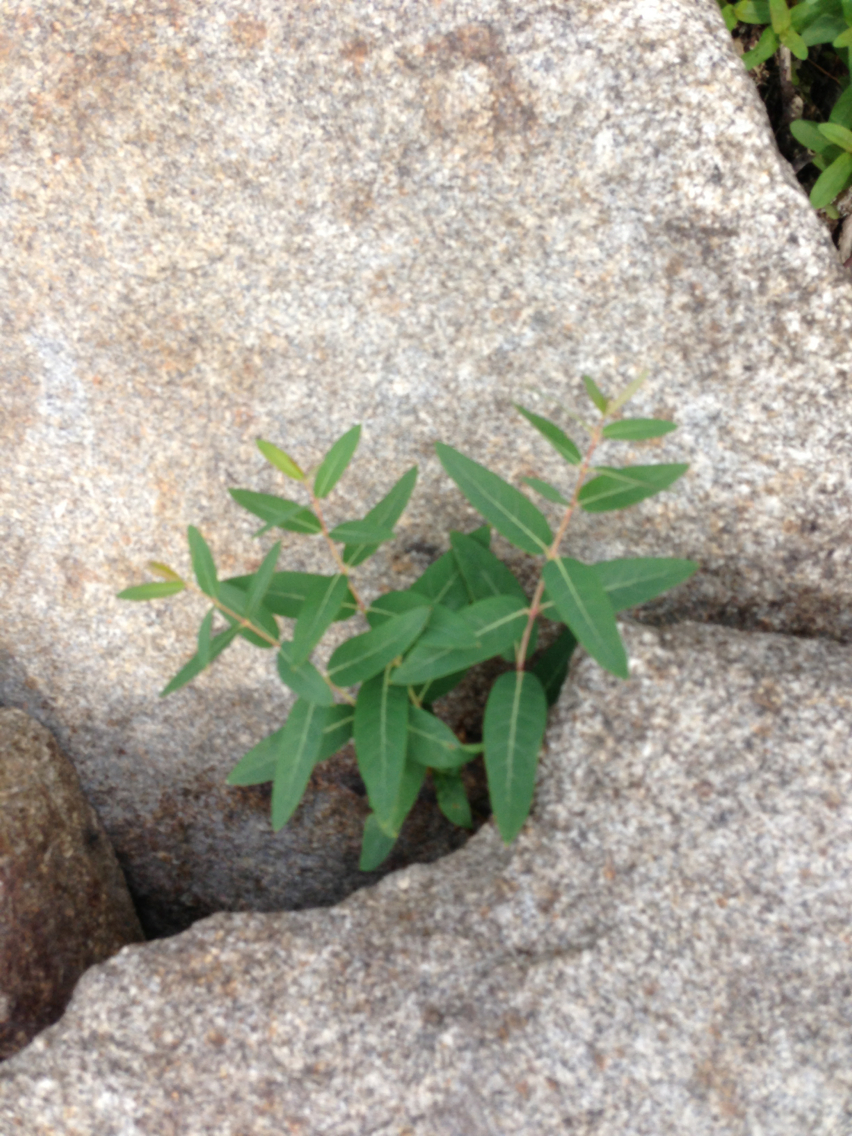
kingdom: Plantae
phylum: Tracheophyta
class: Magnoliopsida
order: Gentianales
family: Apocynaceae
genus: Apocynum
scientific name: Apocynum cannabinum
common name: Hemp dogbane
